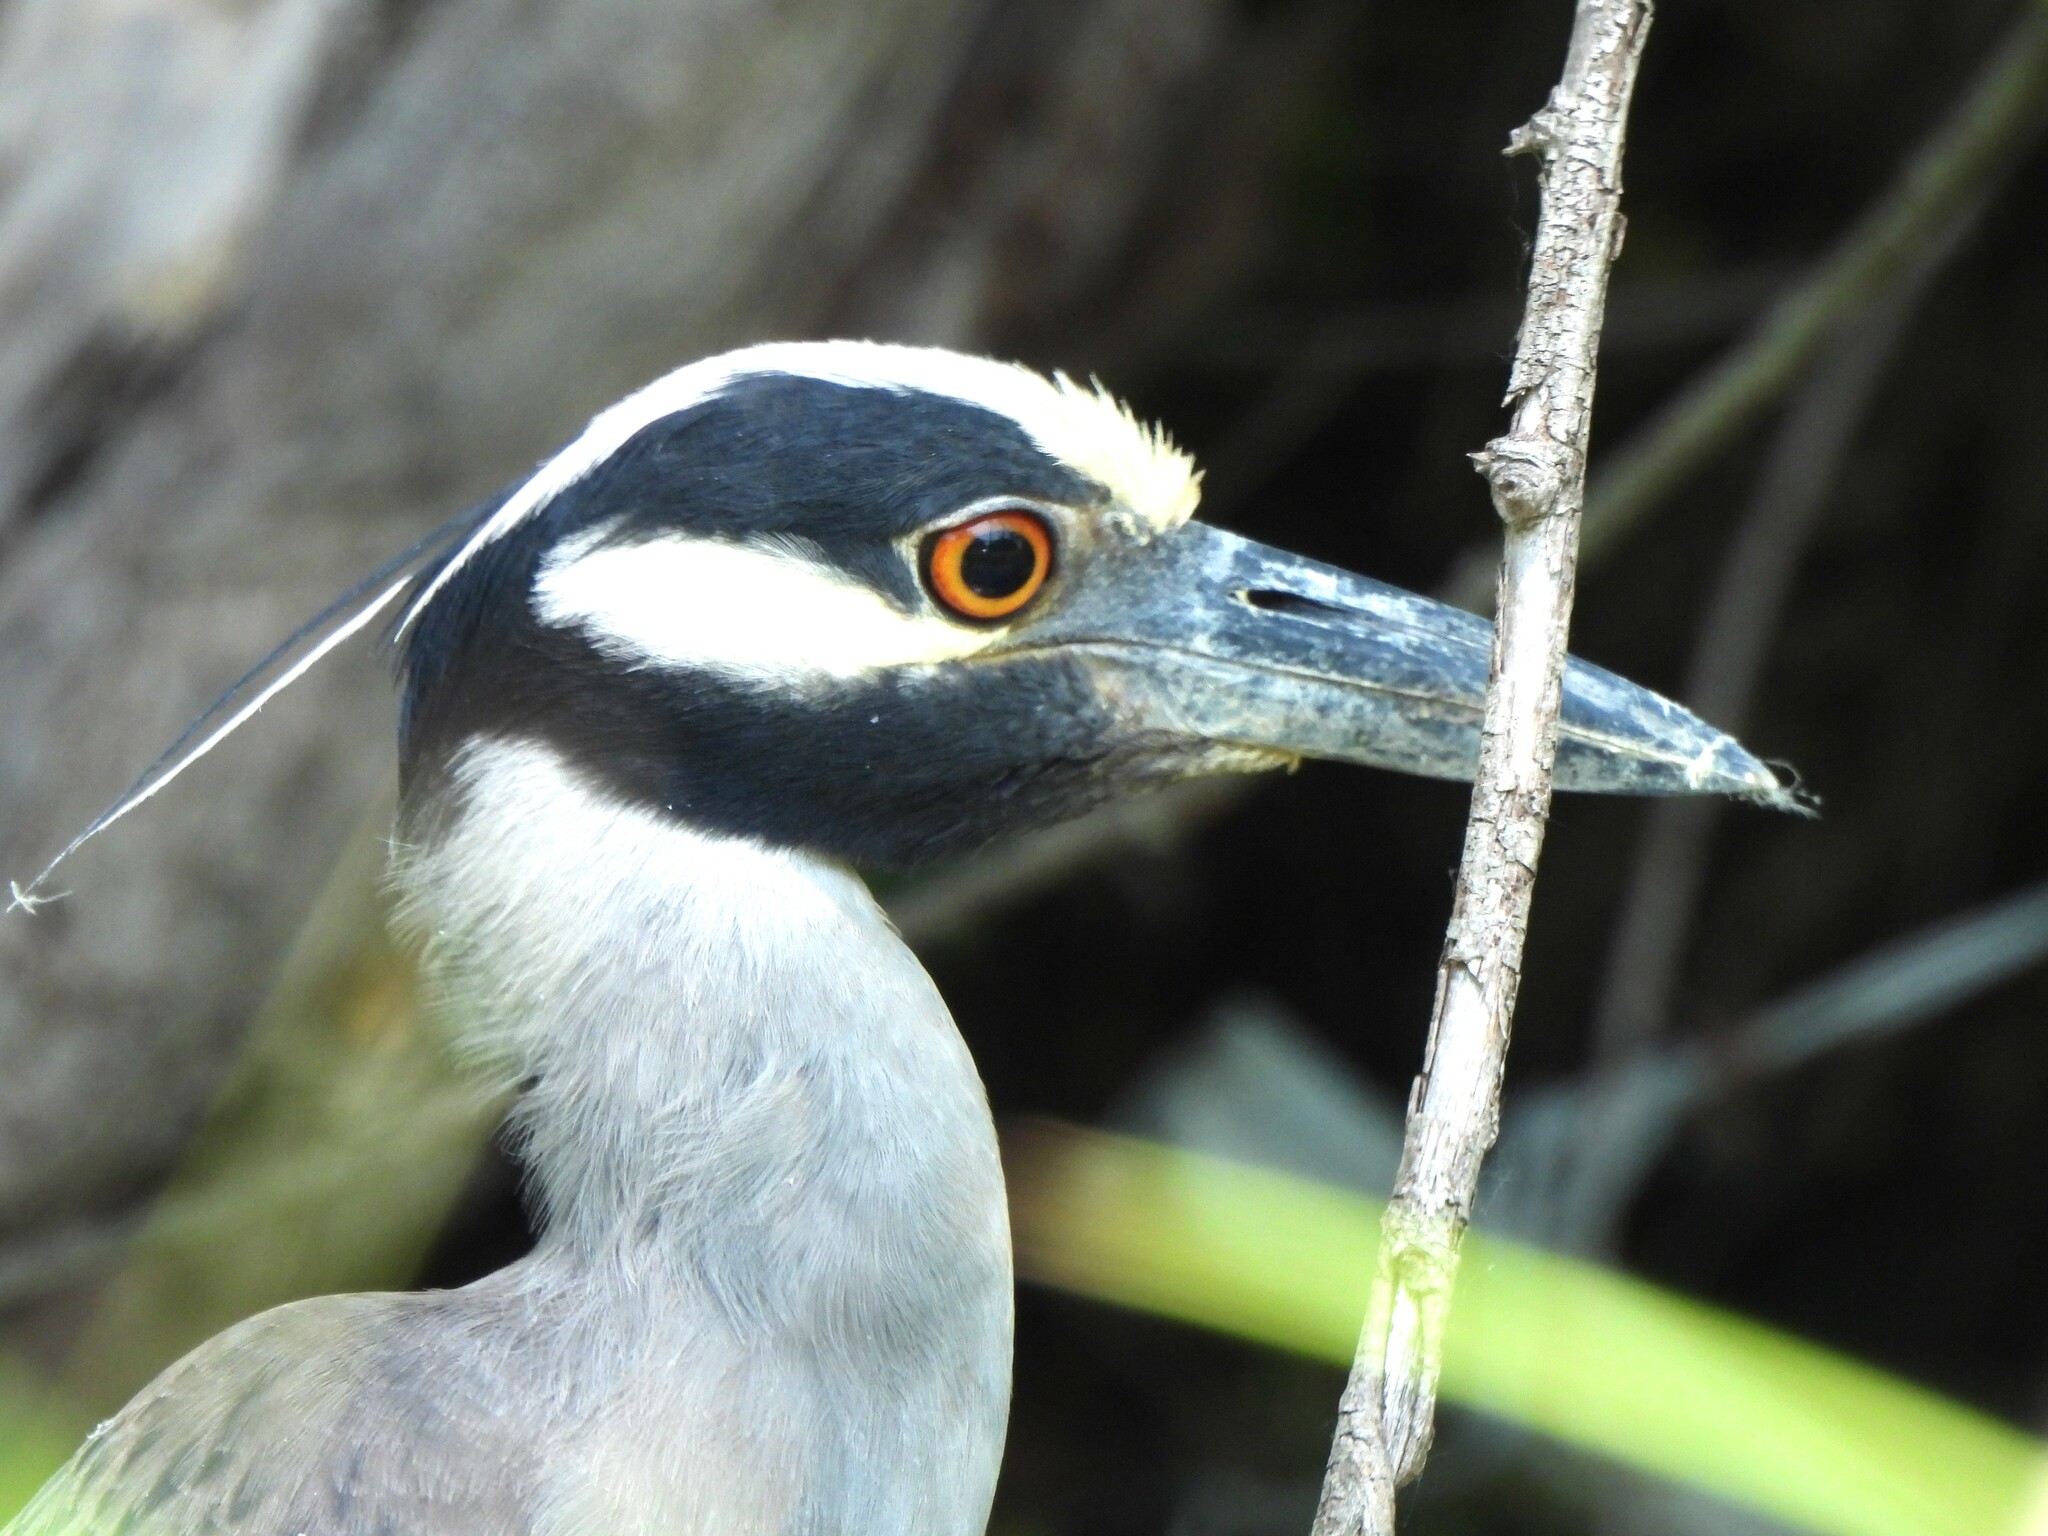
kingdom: Animalia
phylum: Chordata
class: Aves
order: Pelecaniformes
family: Ardeidae
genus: Nyctanassa
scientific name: Nyctanassa violacea
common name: Yellow-crowned night heron
